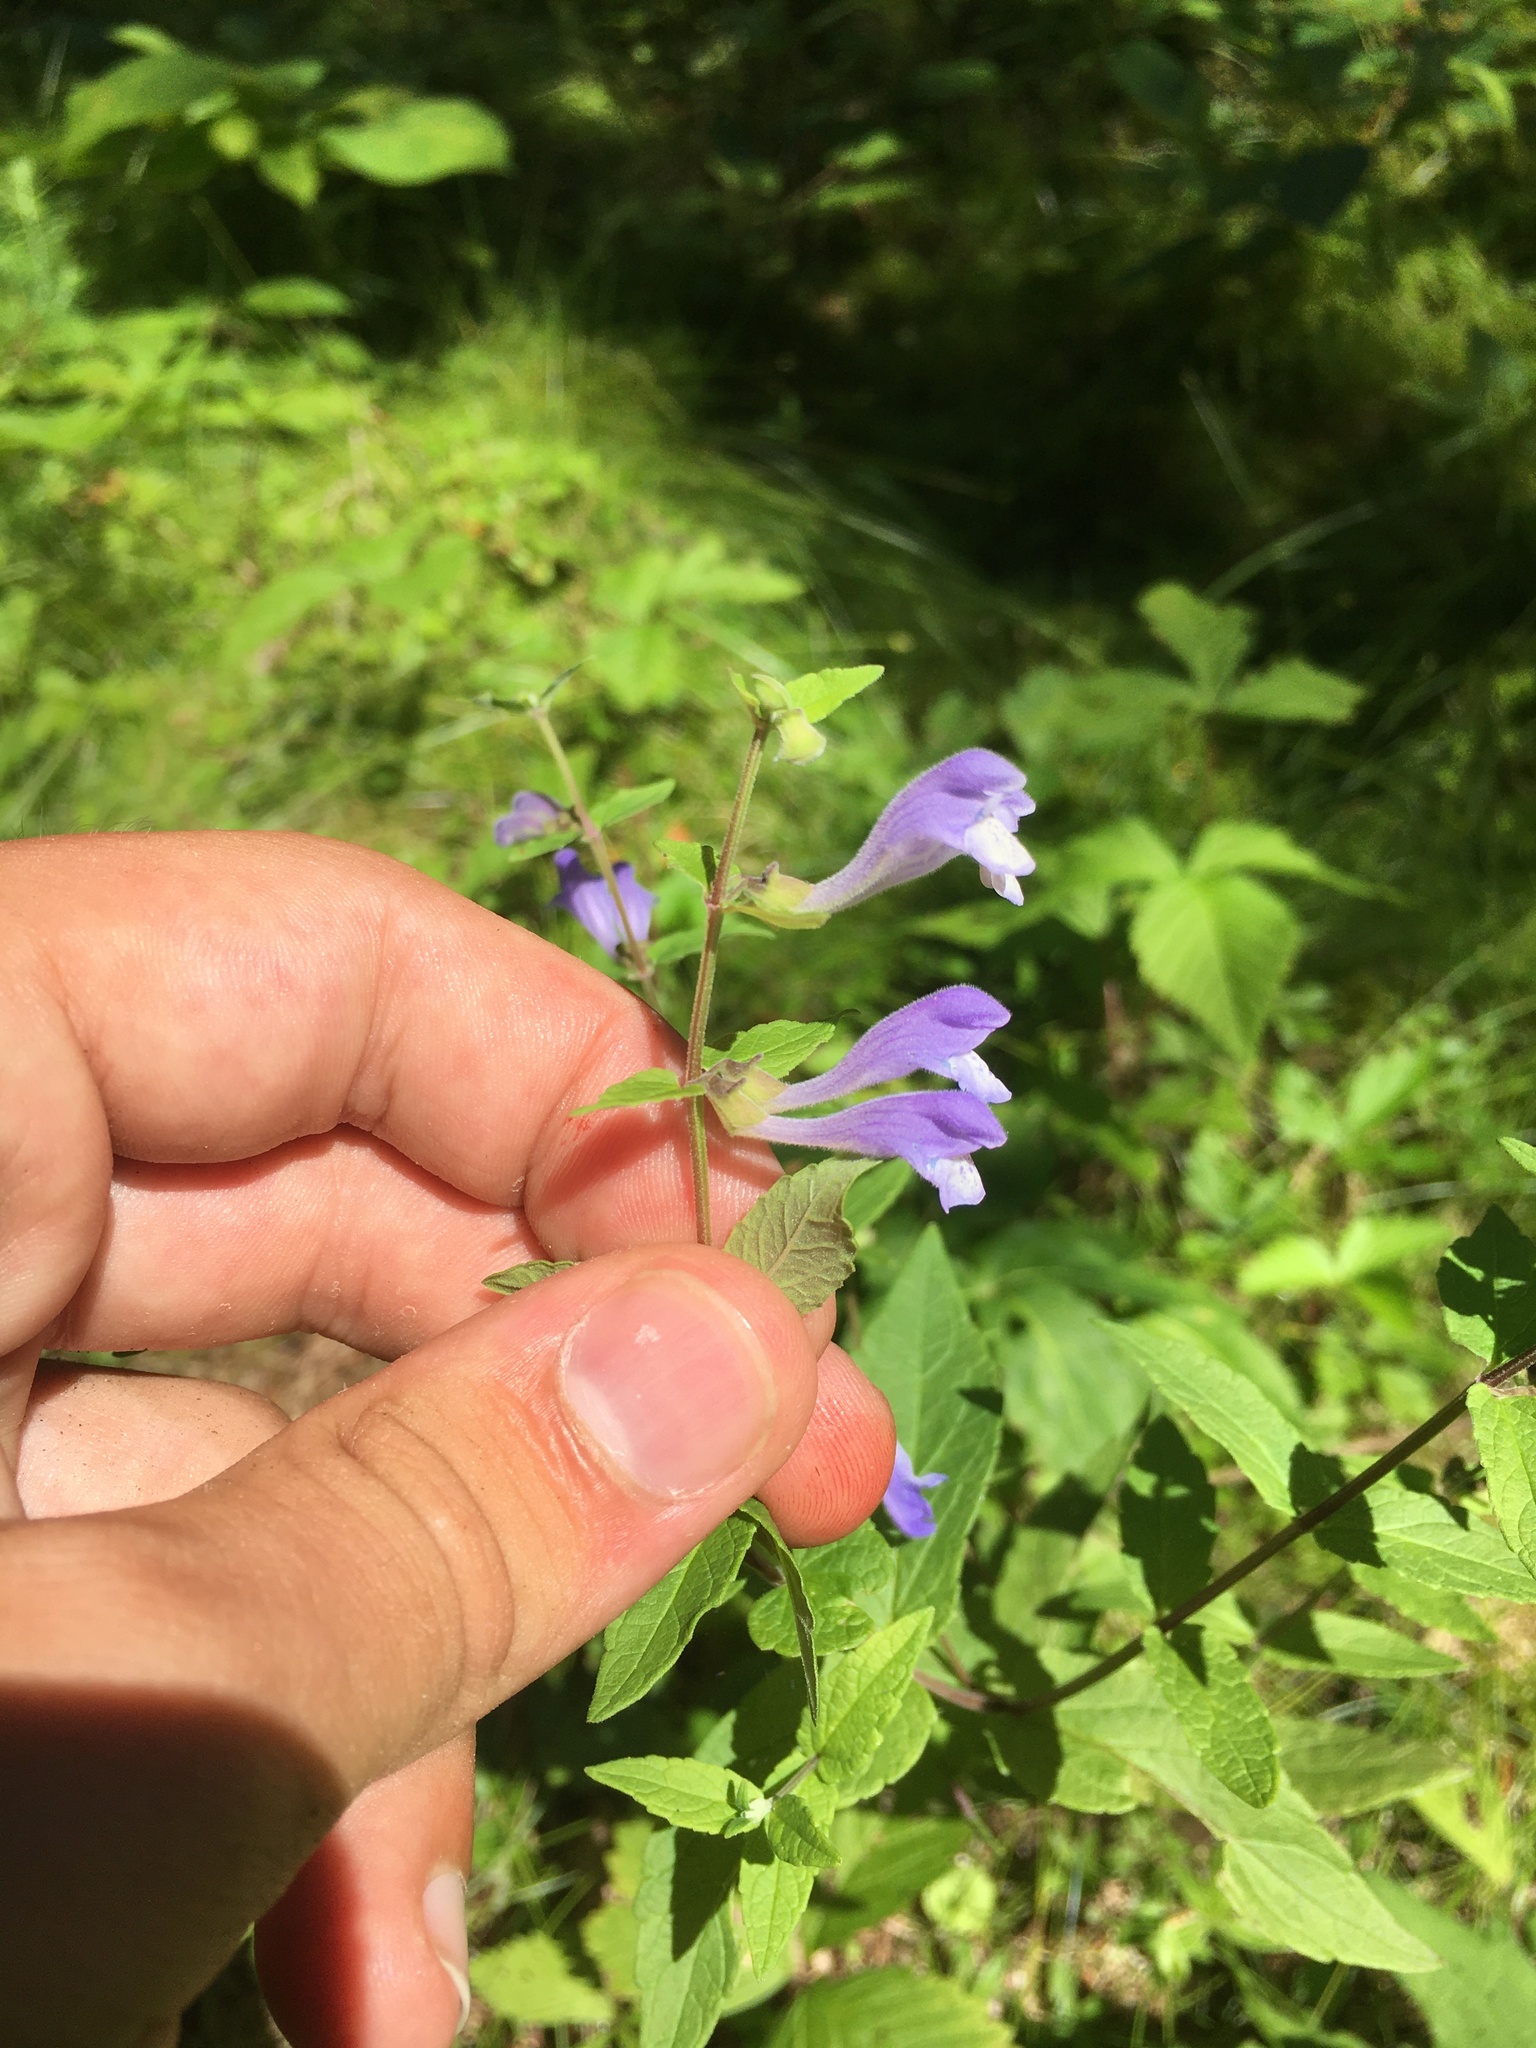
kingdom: Plantae
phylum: Tracheophyta
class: Magnoliopsida
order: Lamiales
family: Lamiaceae
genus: Scutellaria
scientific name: Scutellaria galericulata
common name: Skullcap
